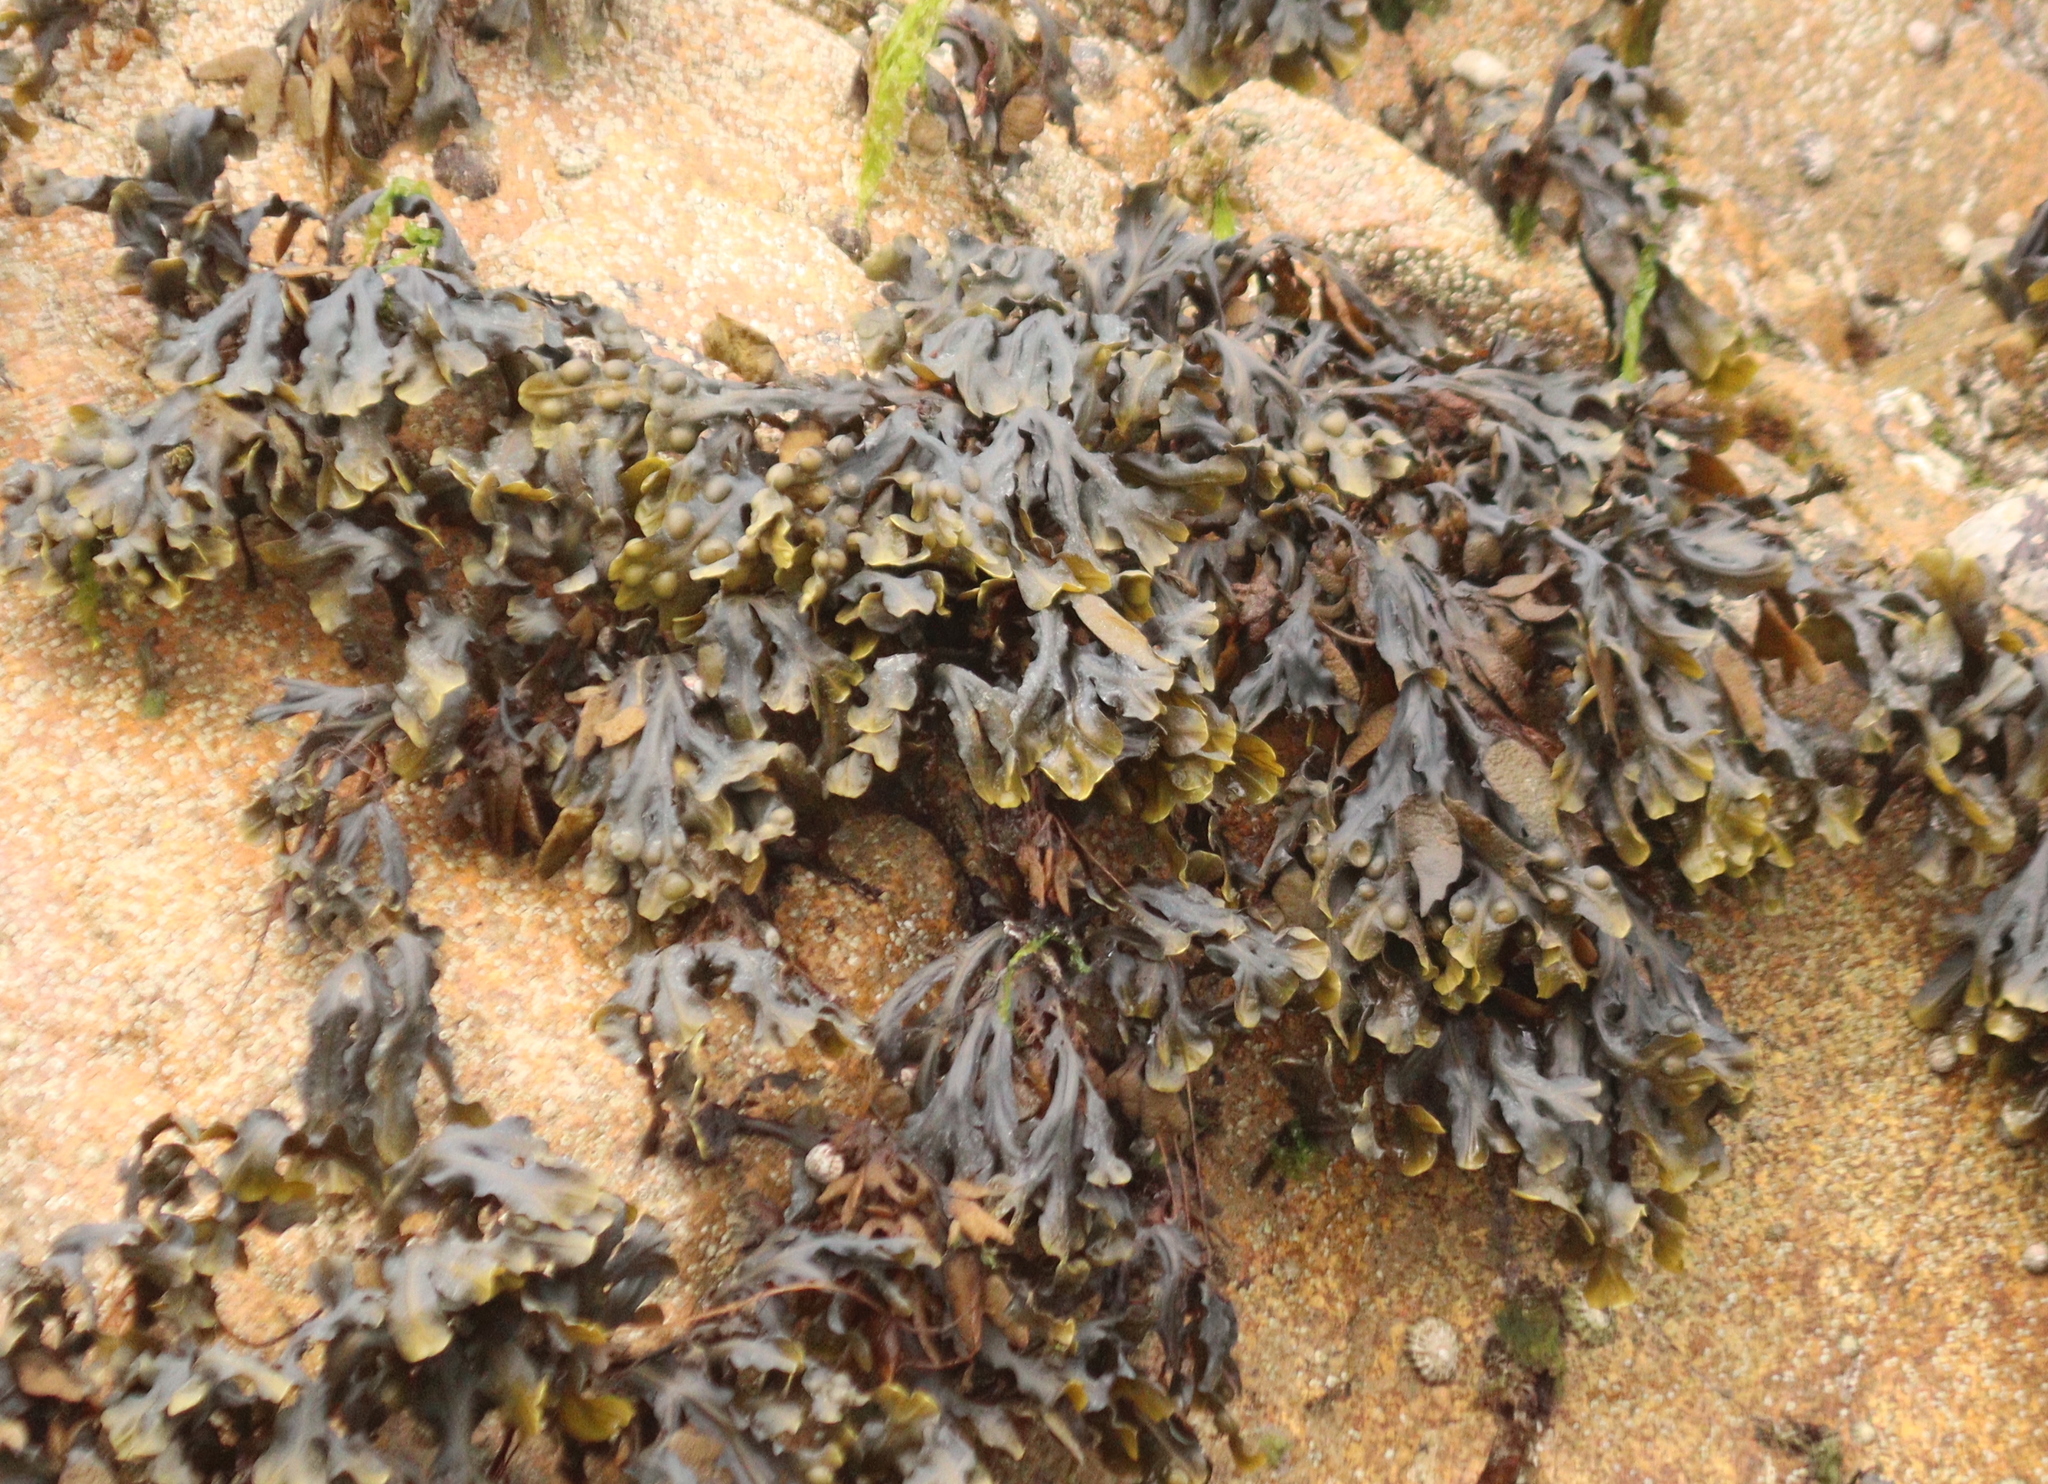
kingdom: Chromista
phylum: Ochrophyta
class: Phaeophyceae
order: Fucales
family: Fucaceae
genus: Fucus
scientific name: Fucus vesiculosus
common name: Bladder wrack
